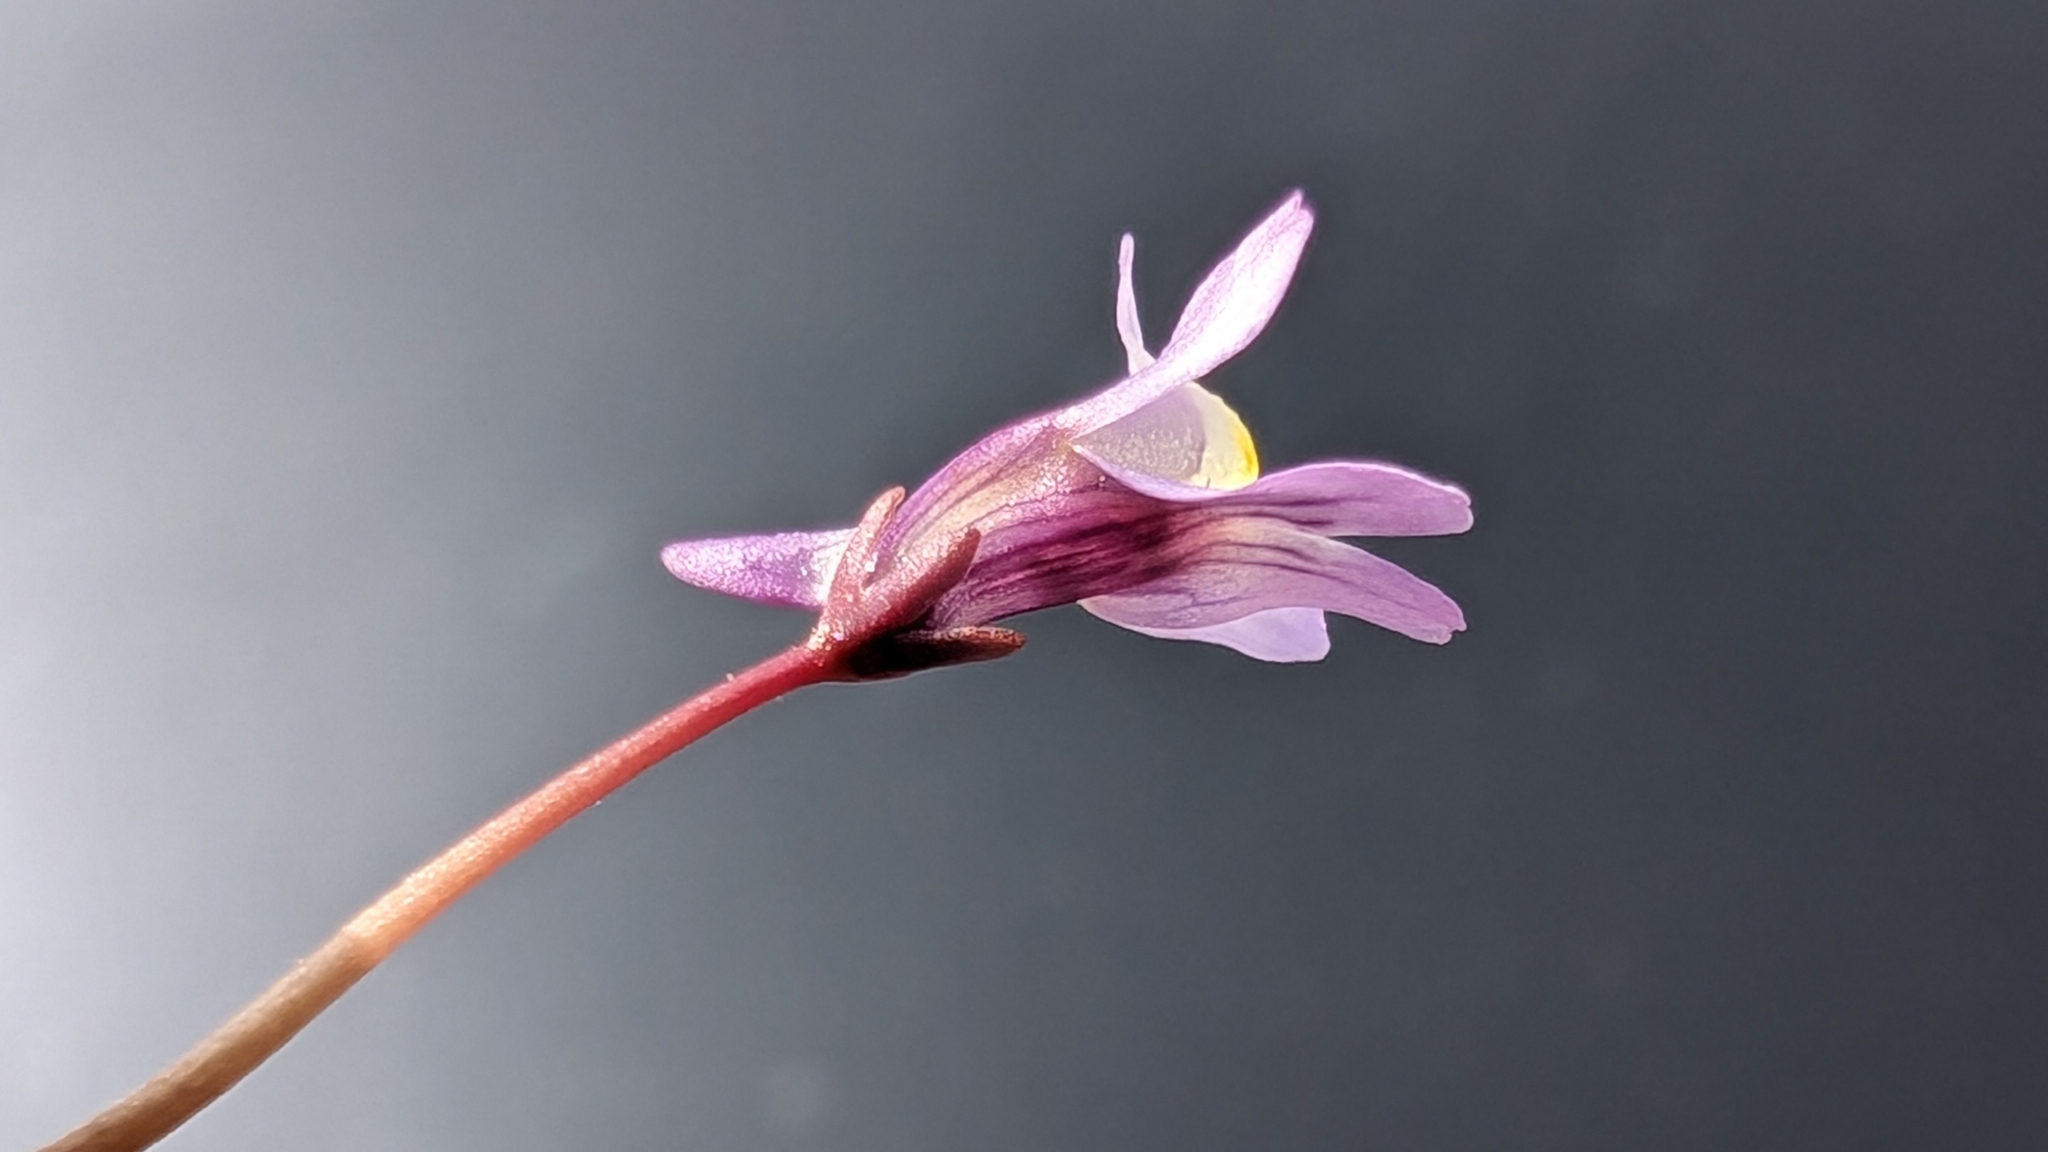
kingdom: Plantae
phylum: Tracheophyta
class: Magnoliopsida
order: Lamiales
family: Plantaginaceae
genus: Cymbalaria
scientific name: Cymbalaria muralis
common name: Ivy-leaved toadflax
